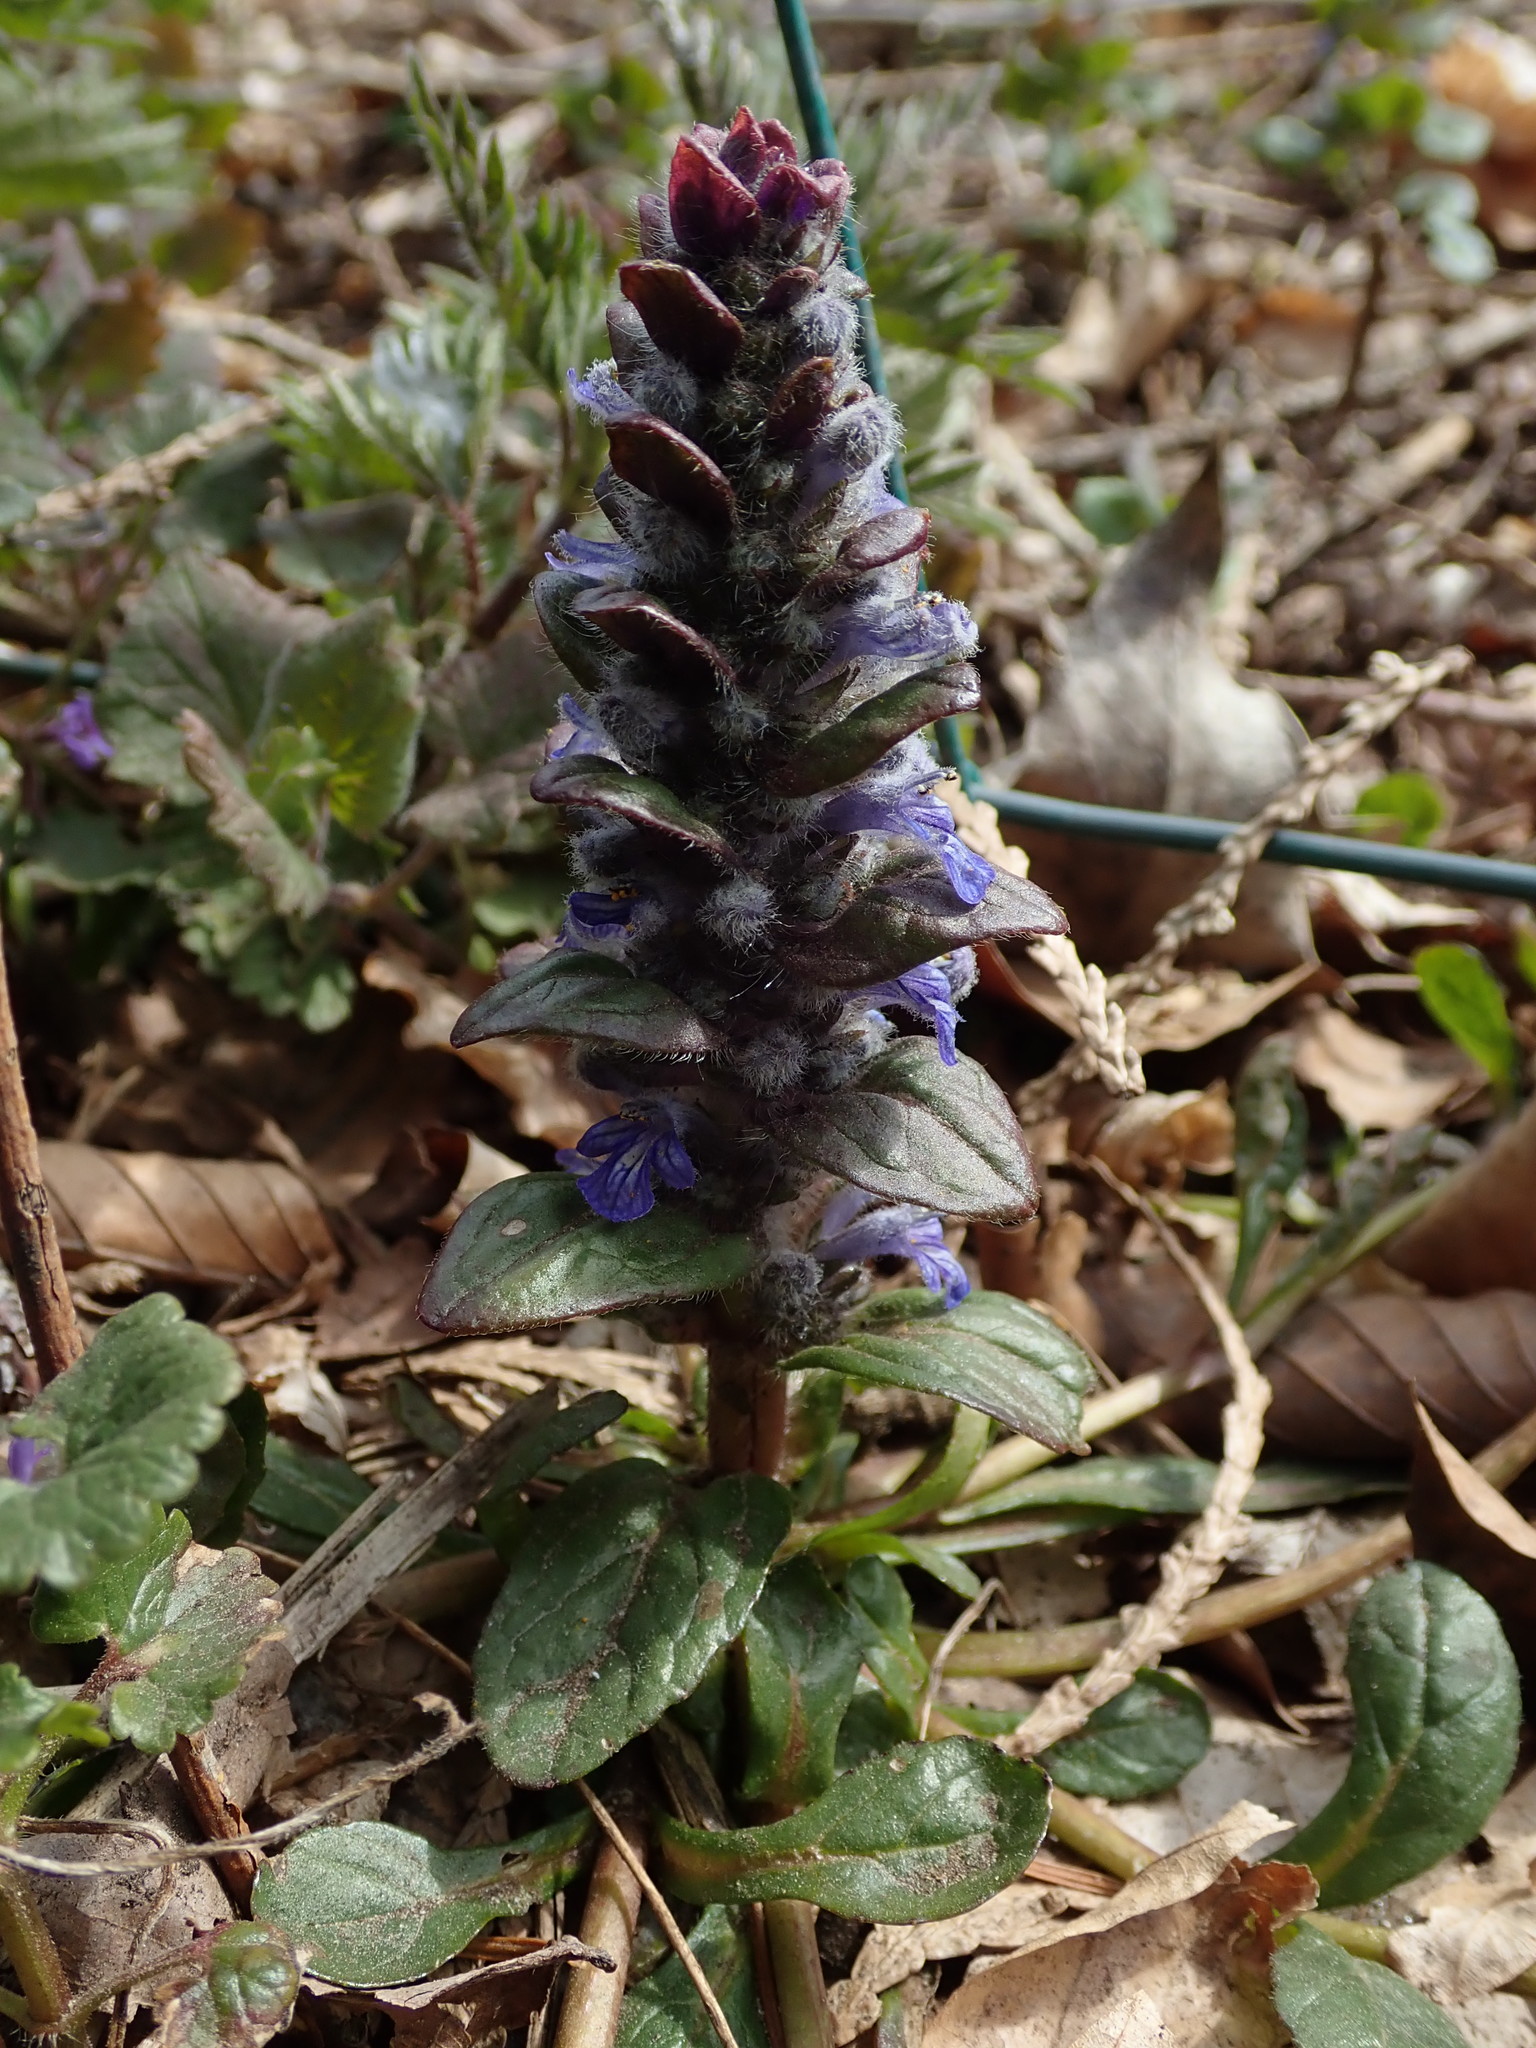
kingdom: Plantae
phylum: Tracheophyta
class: Magnoliopsida
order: Lamiales
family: Lamiaceae
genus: Ajuga
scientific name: Ajuga reptans
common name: Bugle
